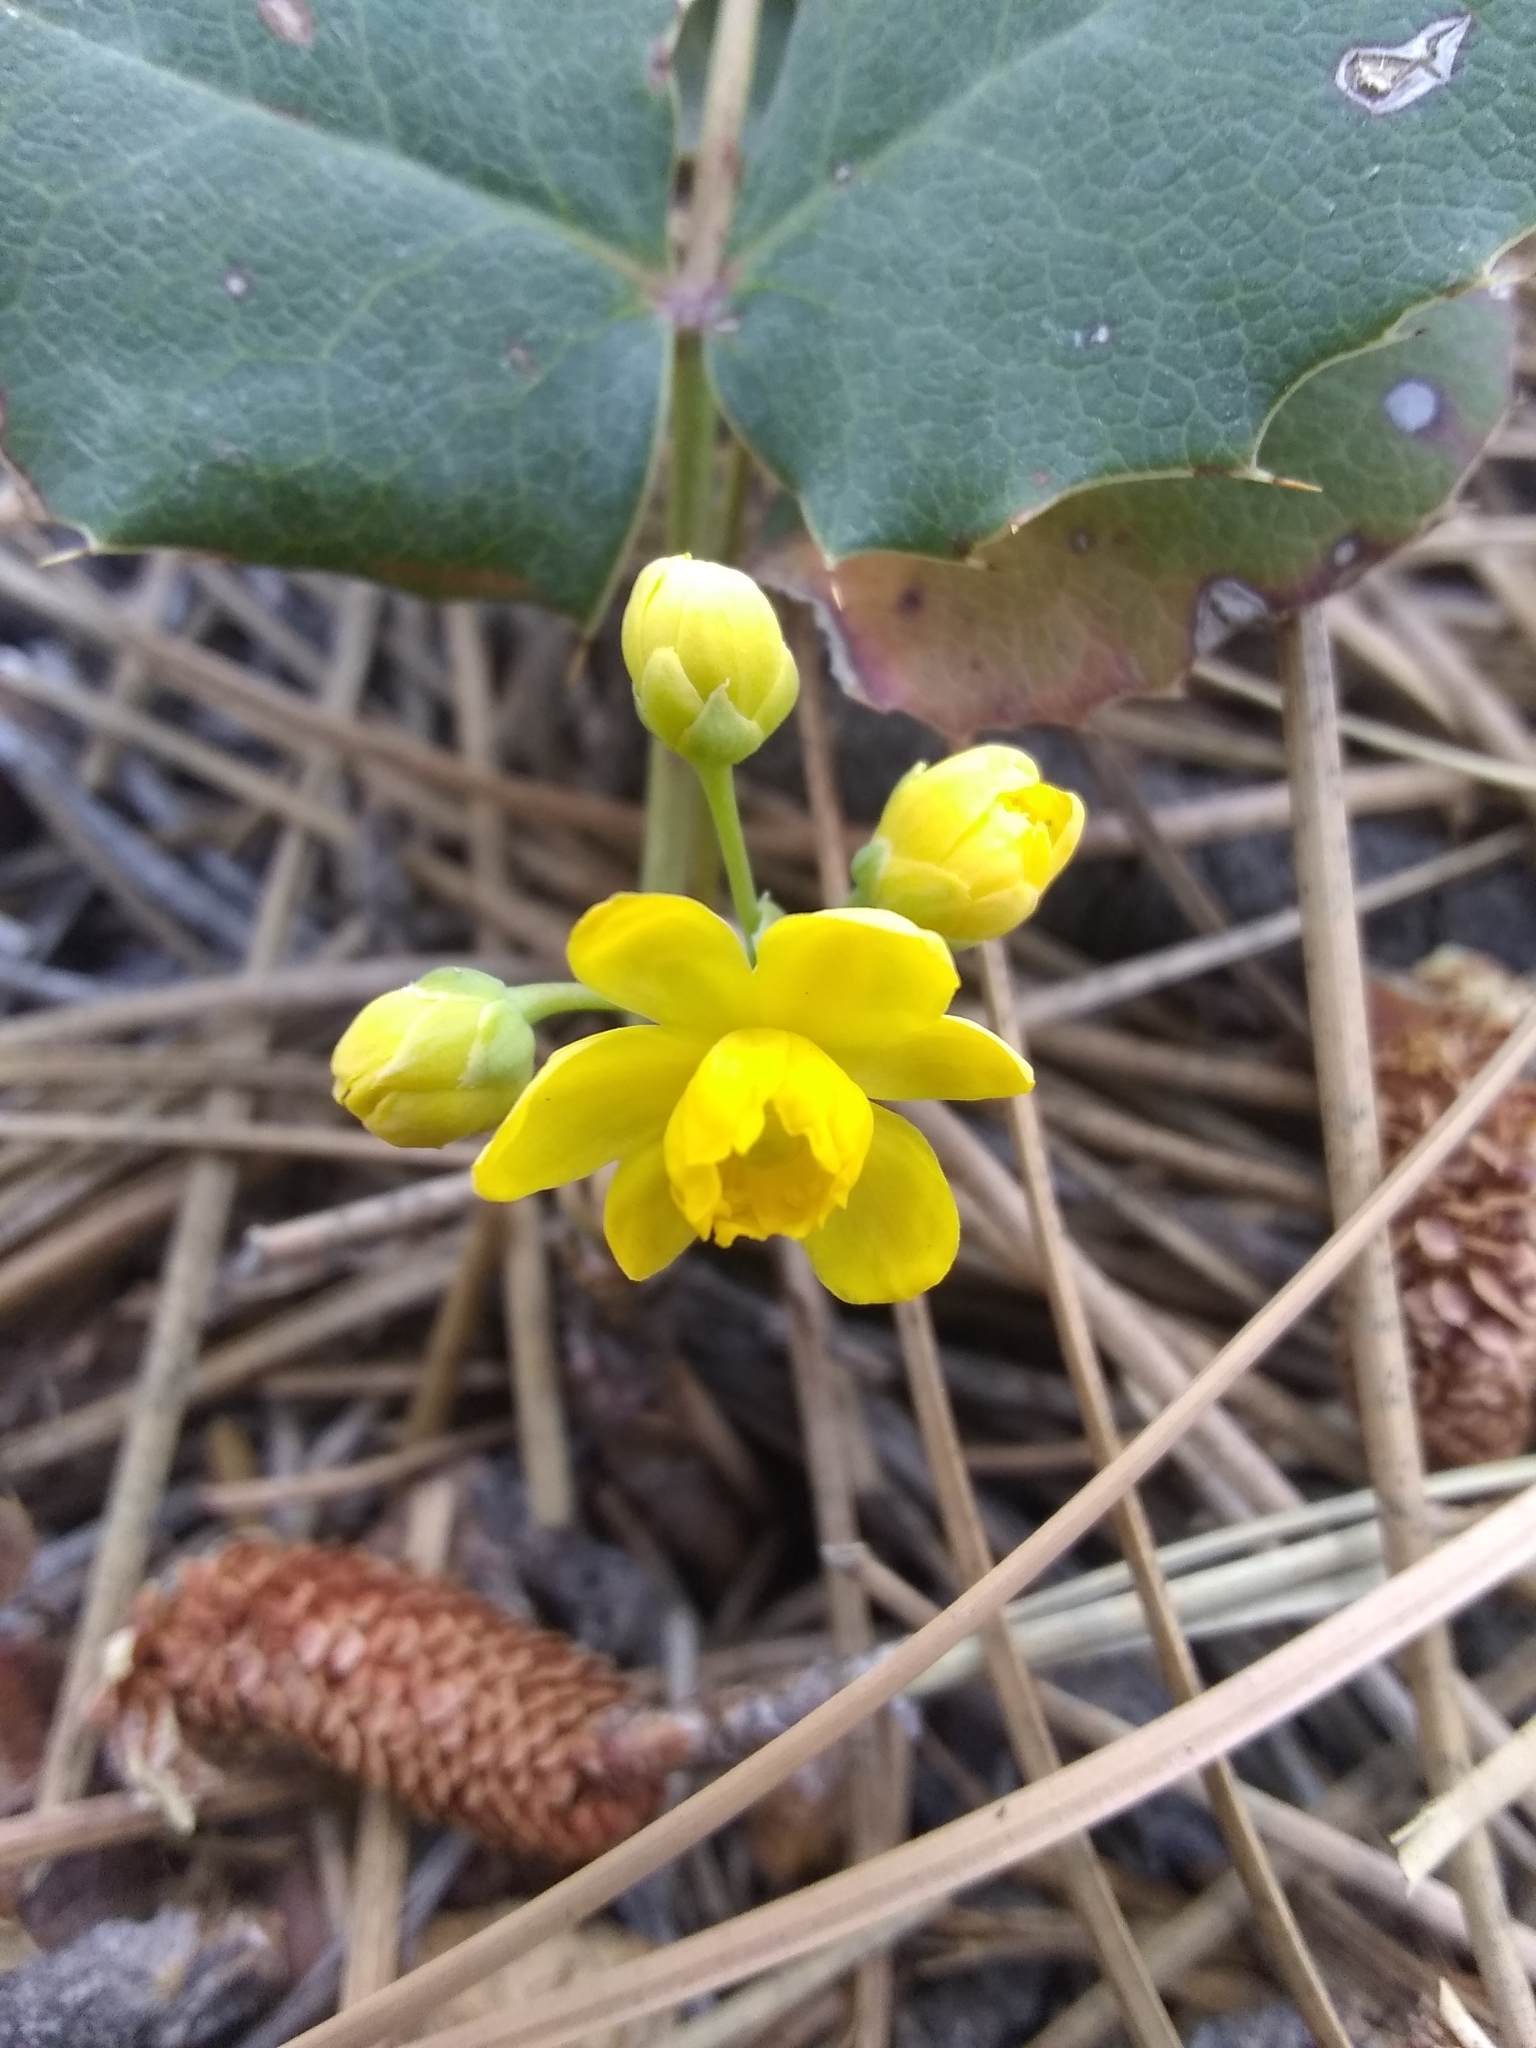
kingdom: Plantae
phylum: Tracheophyta
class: Magnoliopsida
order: Ranunculales
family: Berberidaceae
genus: Mahonia
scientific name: Mahonia repens
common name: Creeping oregon-grape
